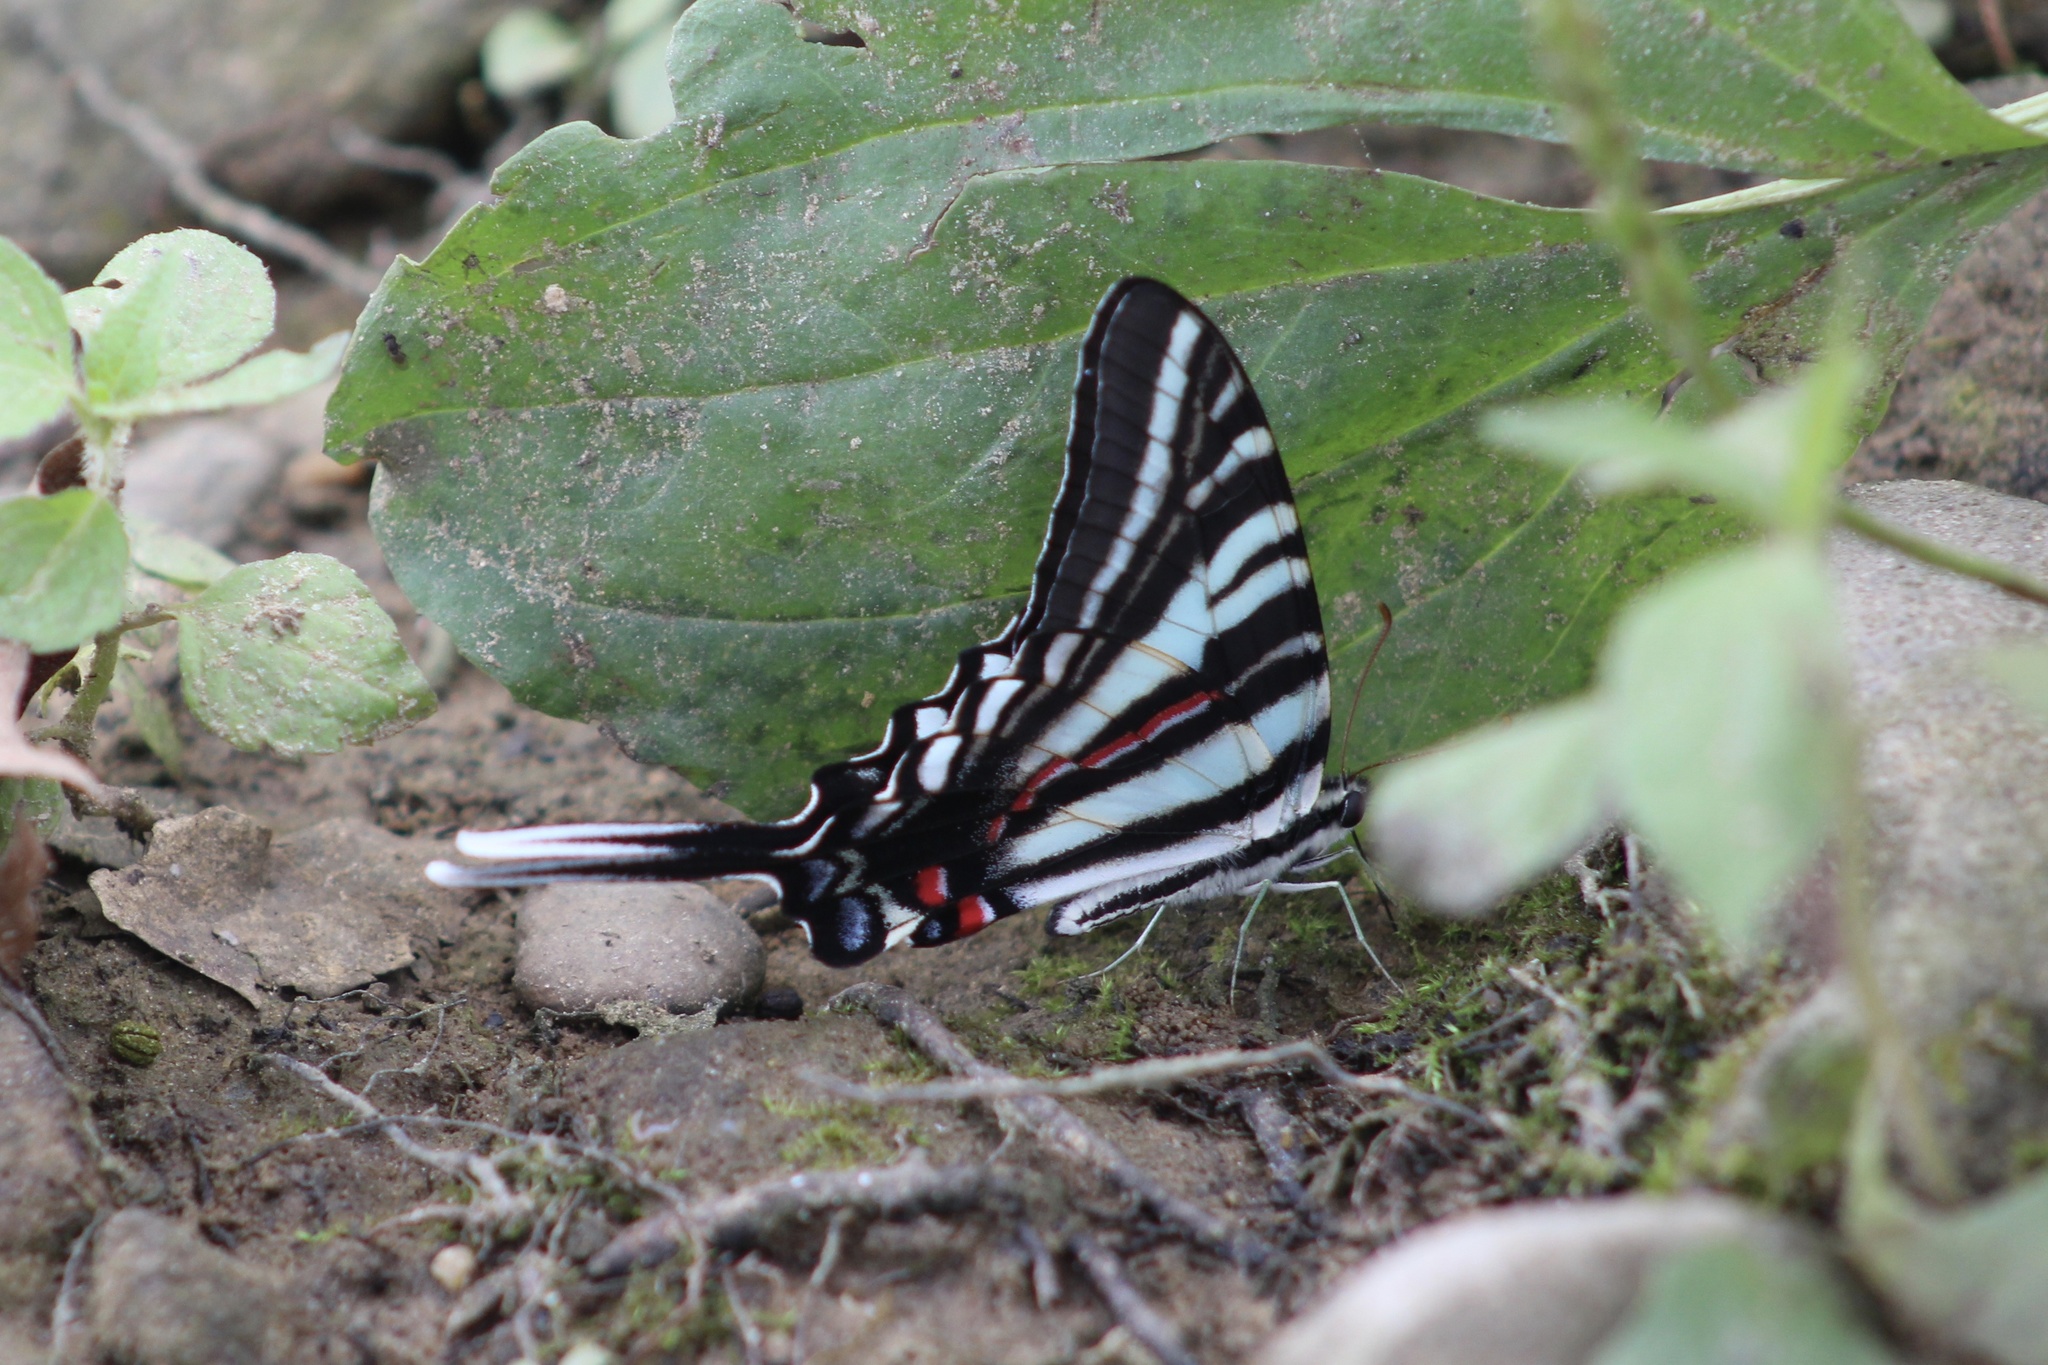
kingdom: Animalia
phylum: Arthropoda
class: Insecta
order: Lepidoptera
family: Papilionidae
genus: Protographium
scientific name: Protographium marcellus
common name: Zebra swallowtail
